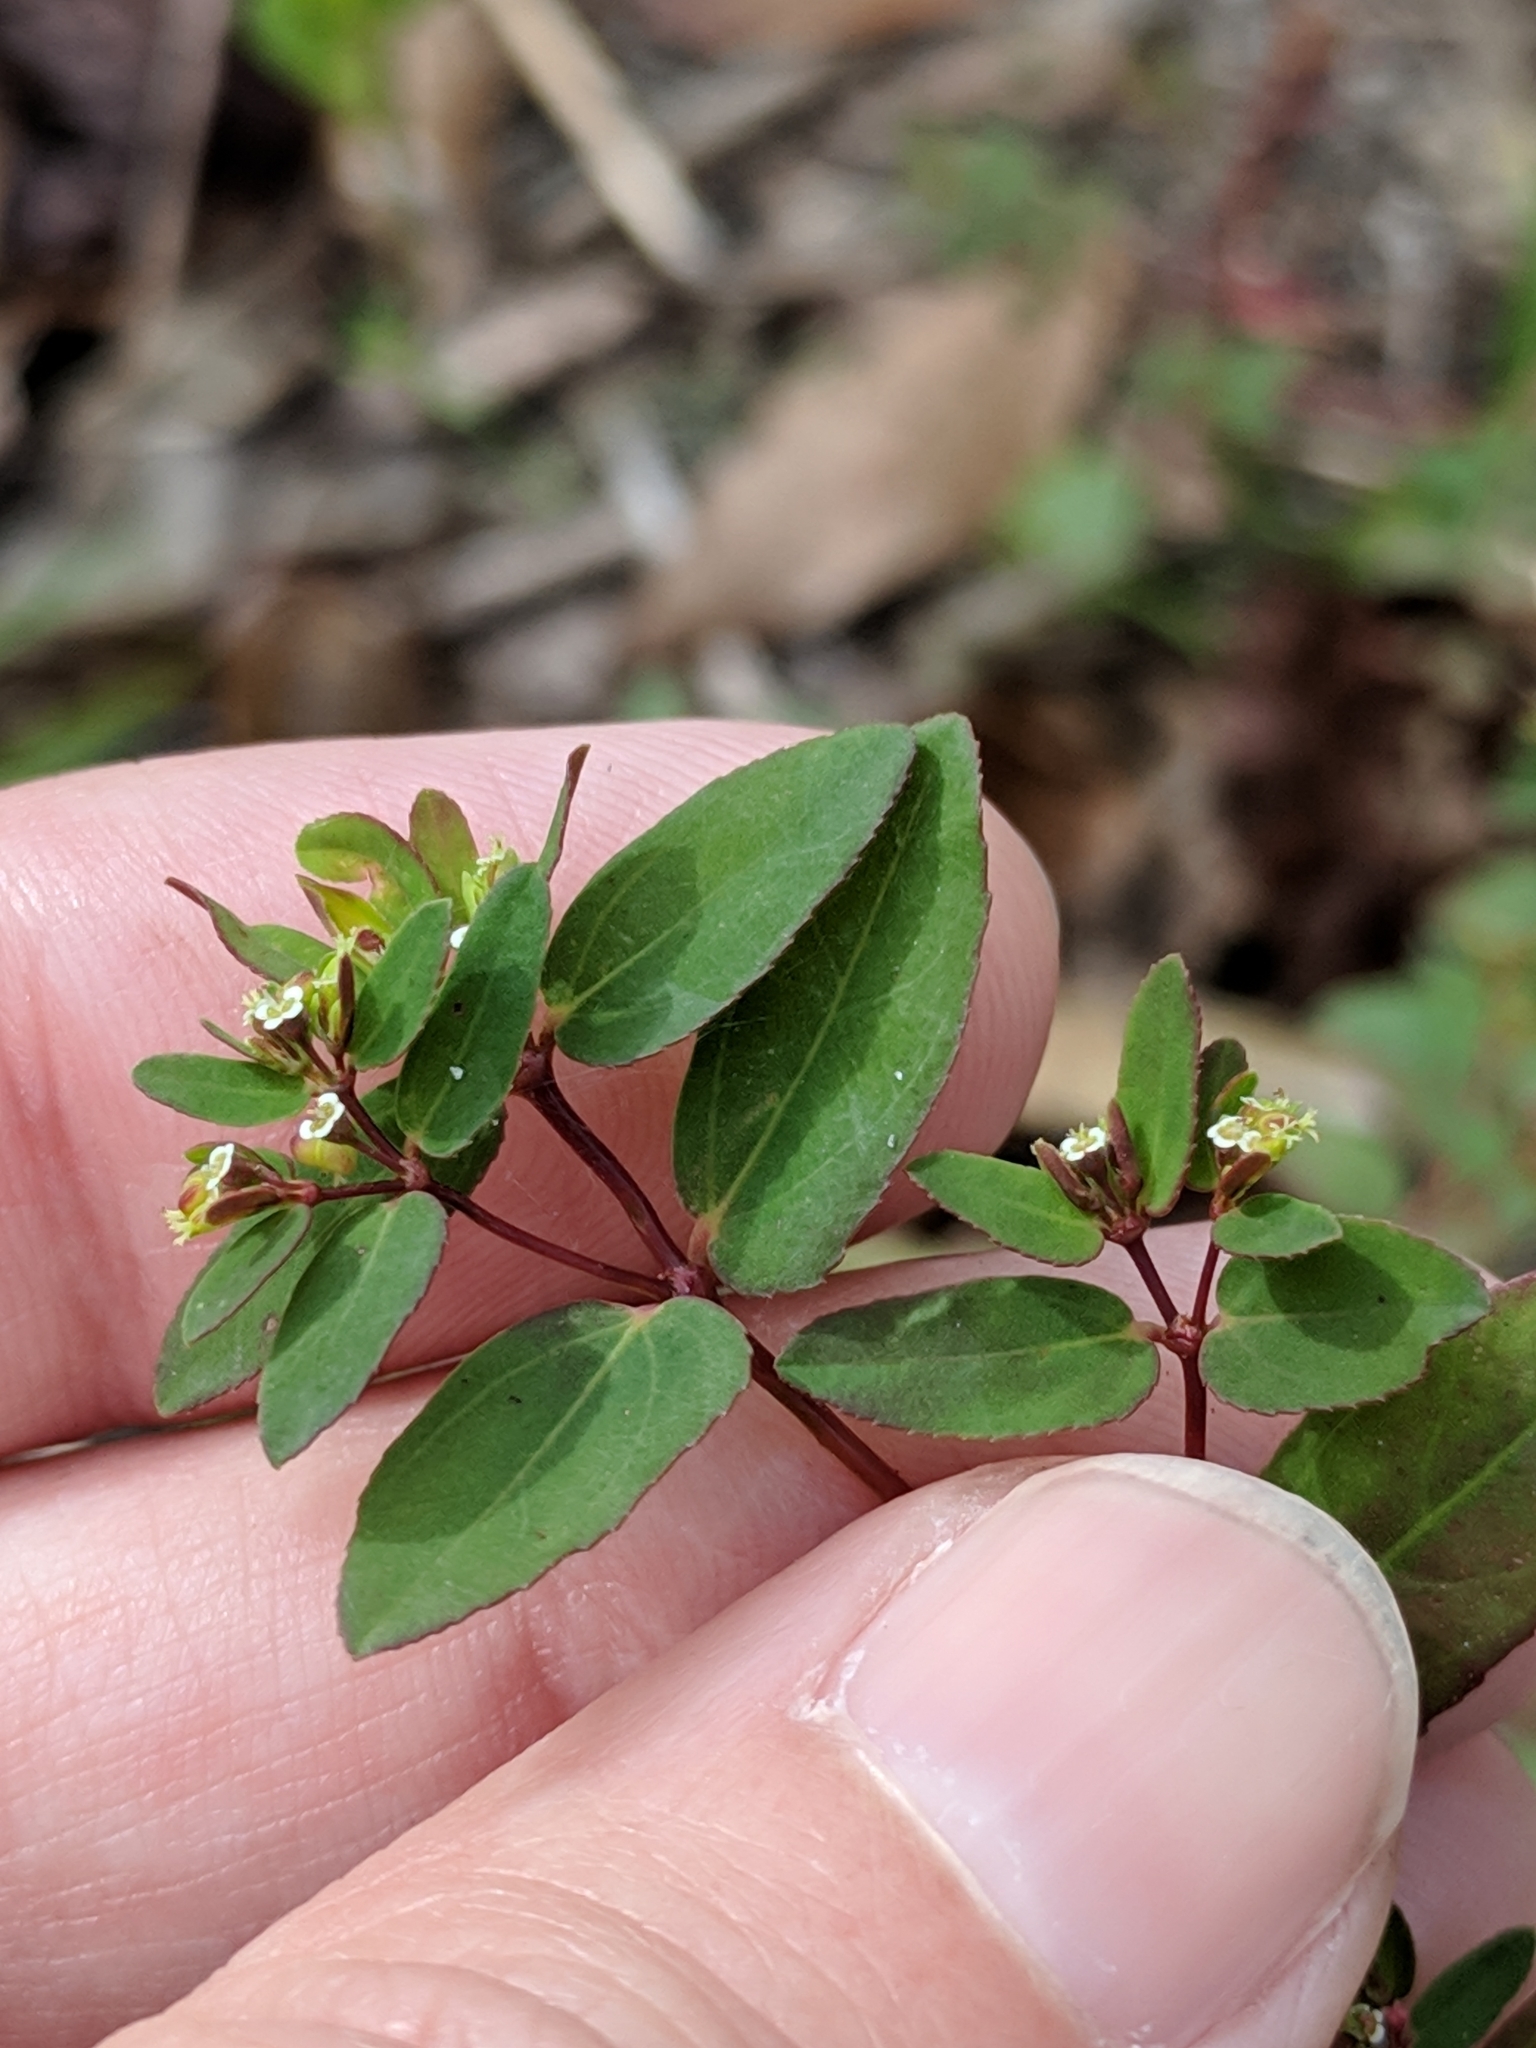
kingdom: Plantae
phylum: Tracheophyta
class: Magnoliopsida
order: Malpighiales
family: Euphorbiaceae
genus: Euphorbia
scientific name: Euphorbia hyssopifolia
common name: Hyssopleaf sandmat
